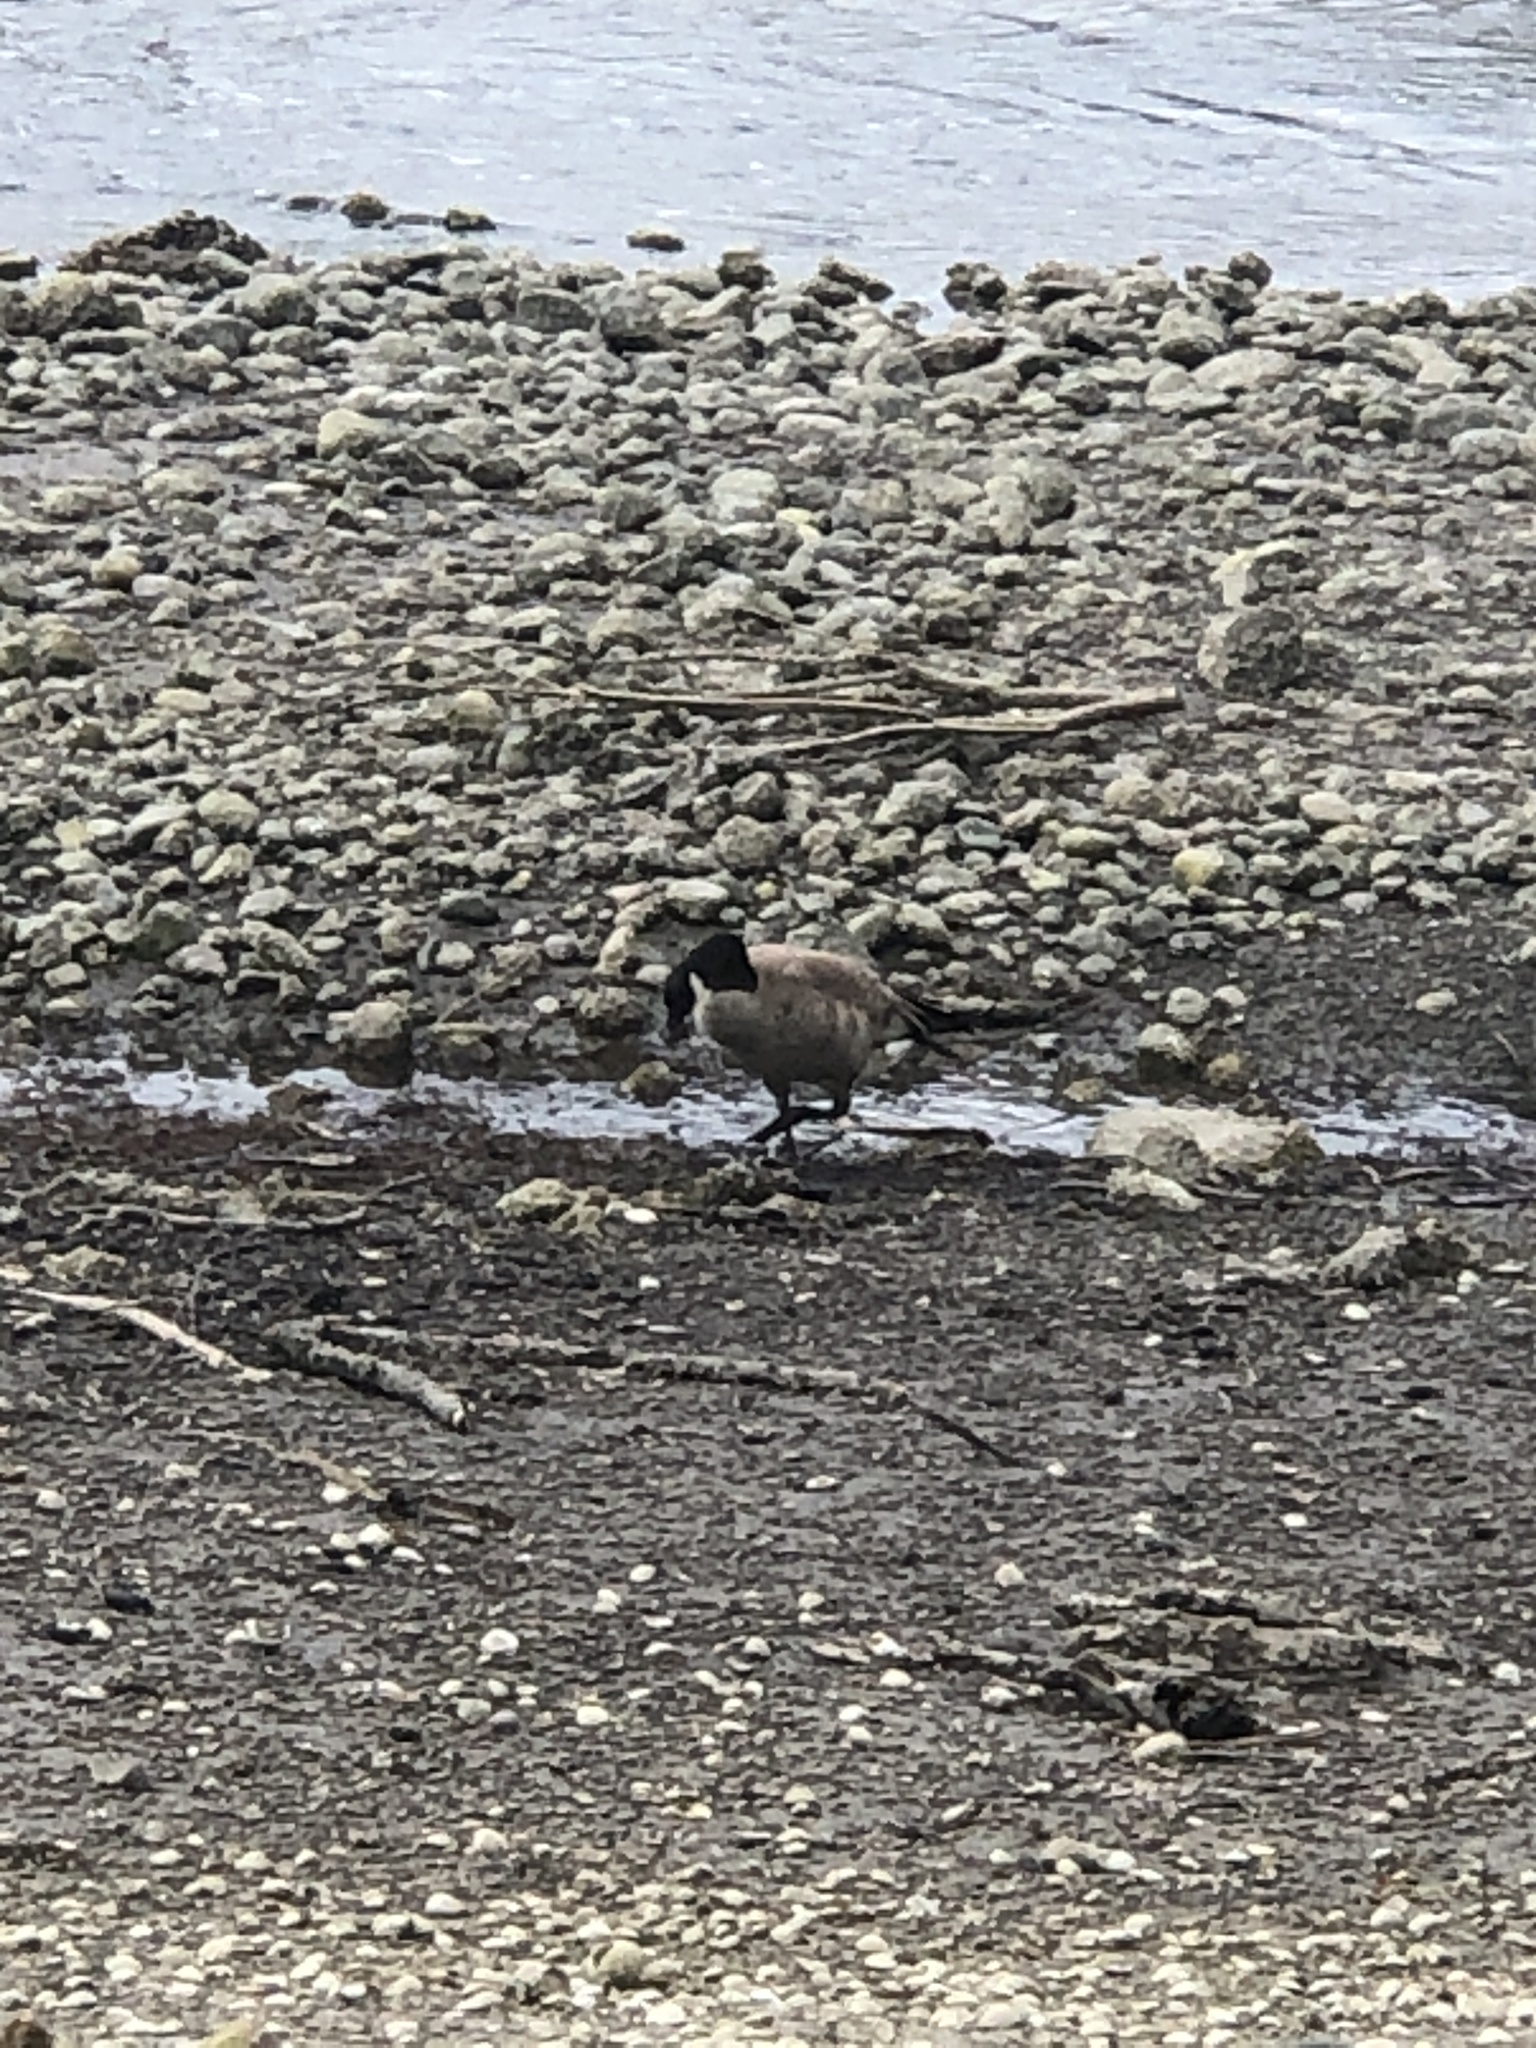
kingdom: Animalia
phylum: Chordata
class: Aves
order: Anseriformes
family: Anatidae
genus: Branta
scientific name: Branta canadensis
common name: Canada goose
